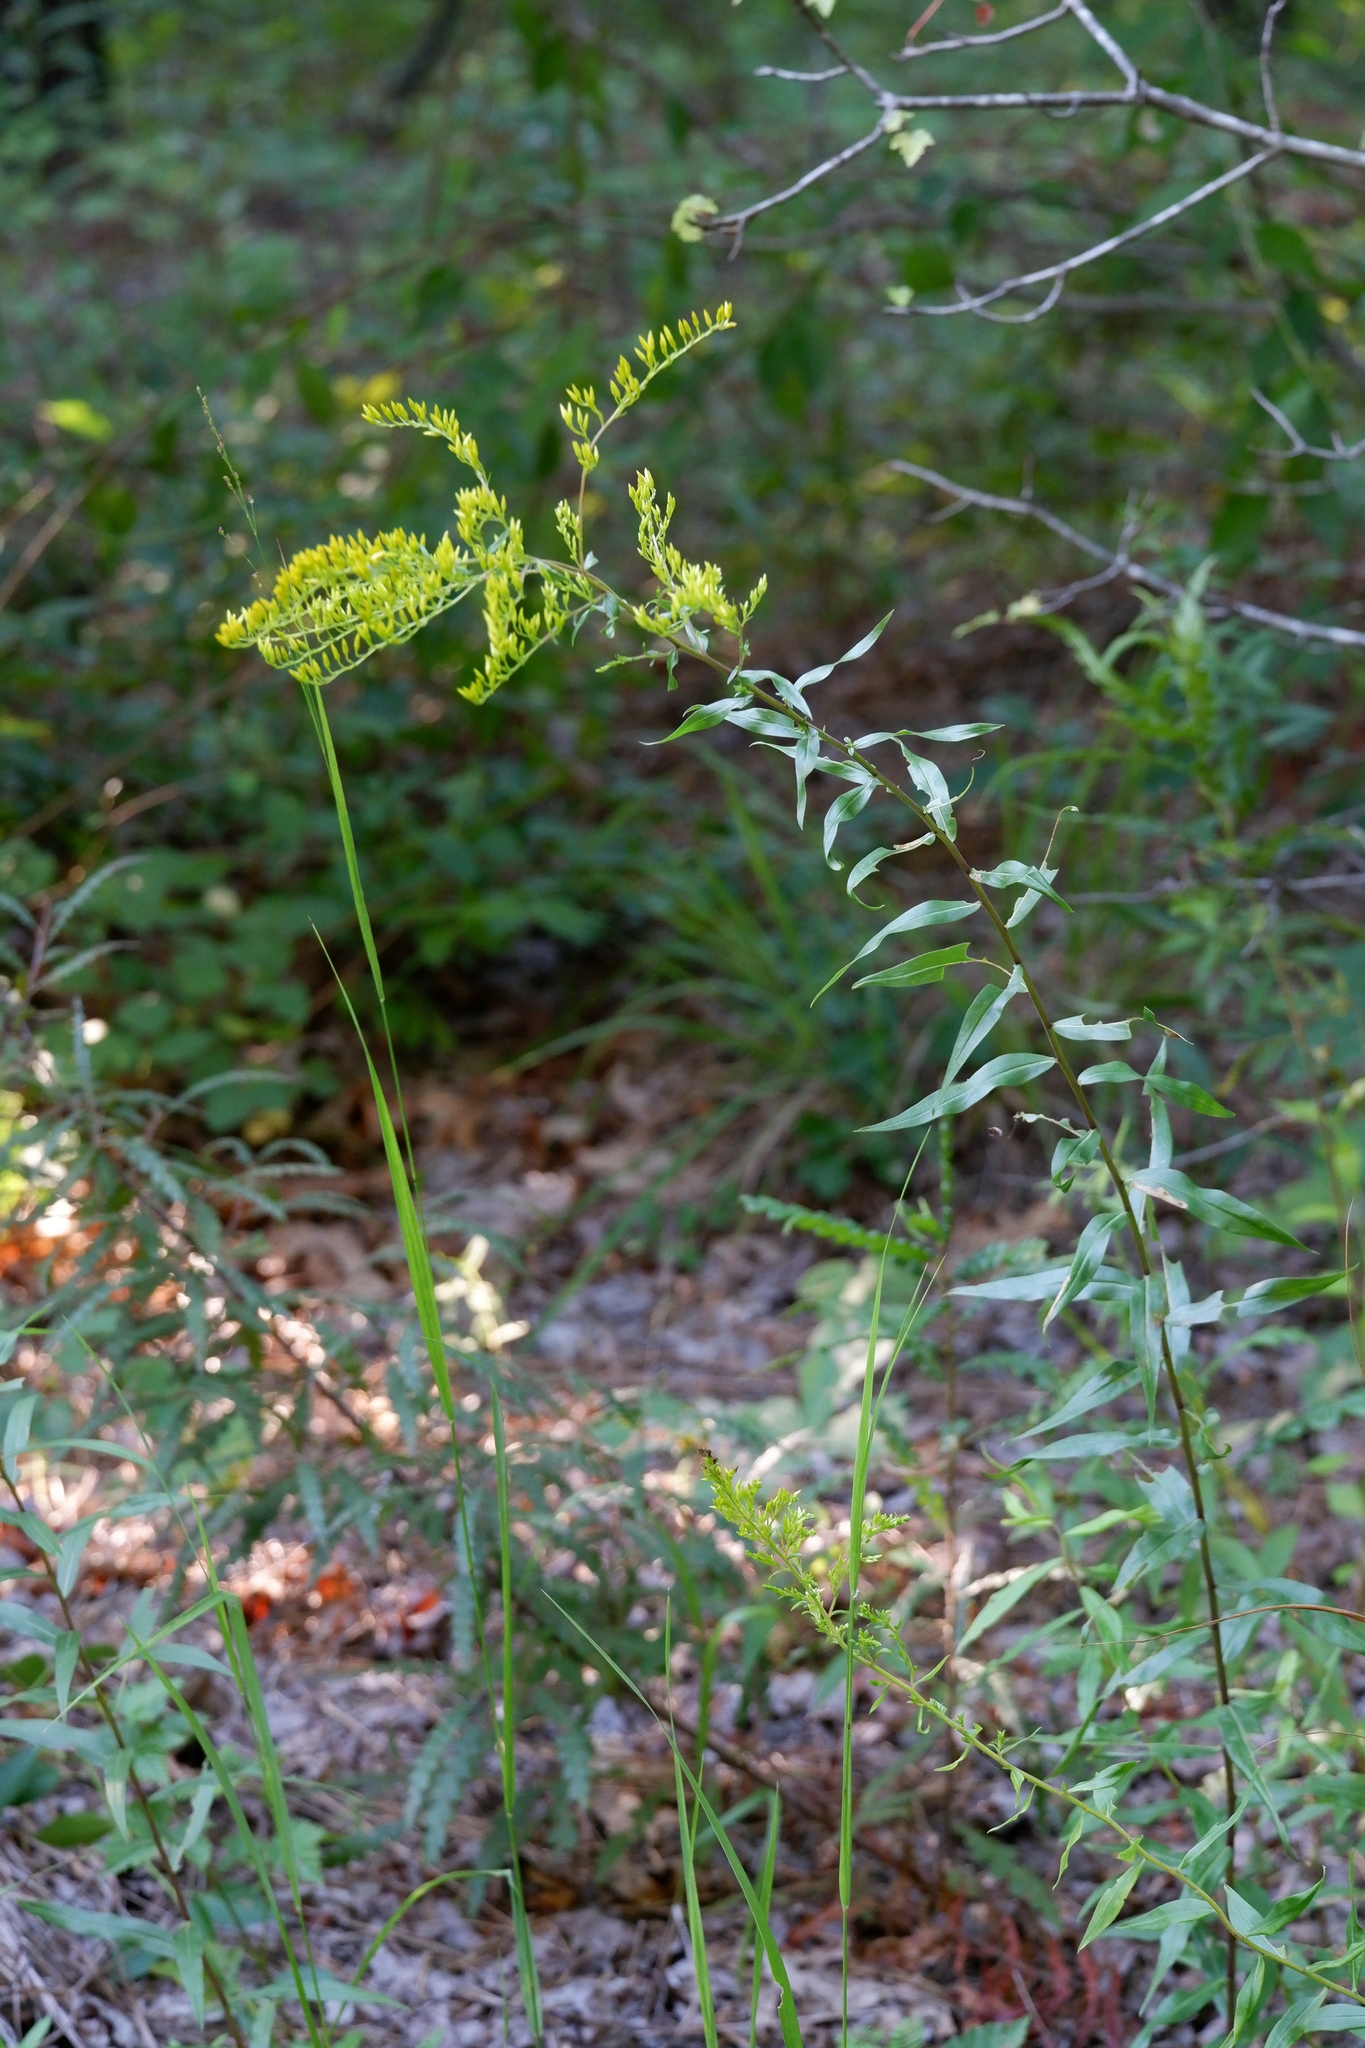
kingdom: Plantae
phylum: Tracheophyta
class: Magnoliopsida
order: Asterales
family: Asteraceae
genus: Solidago
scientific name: Solidago odora
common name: Anise-scented goldenrod
